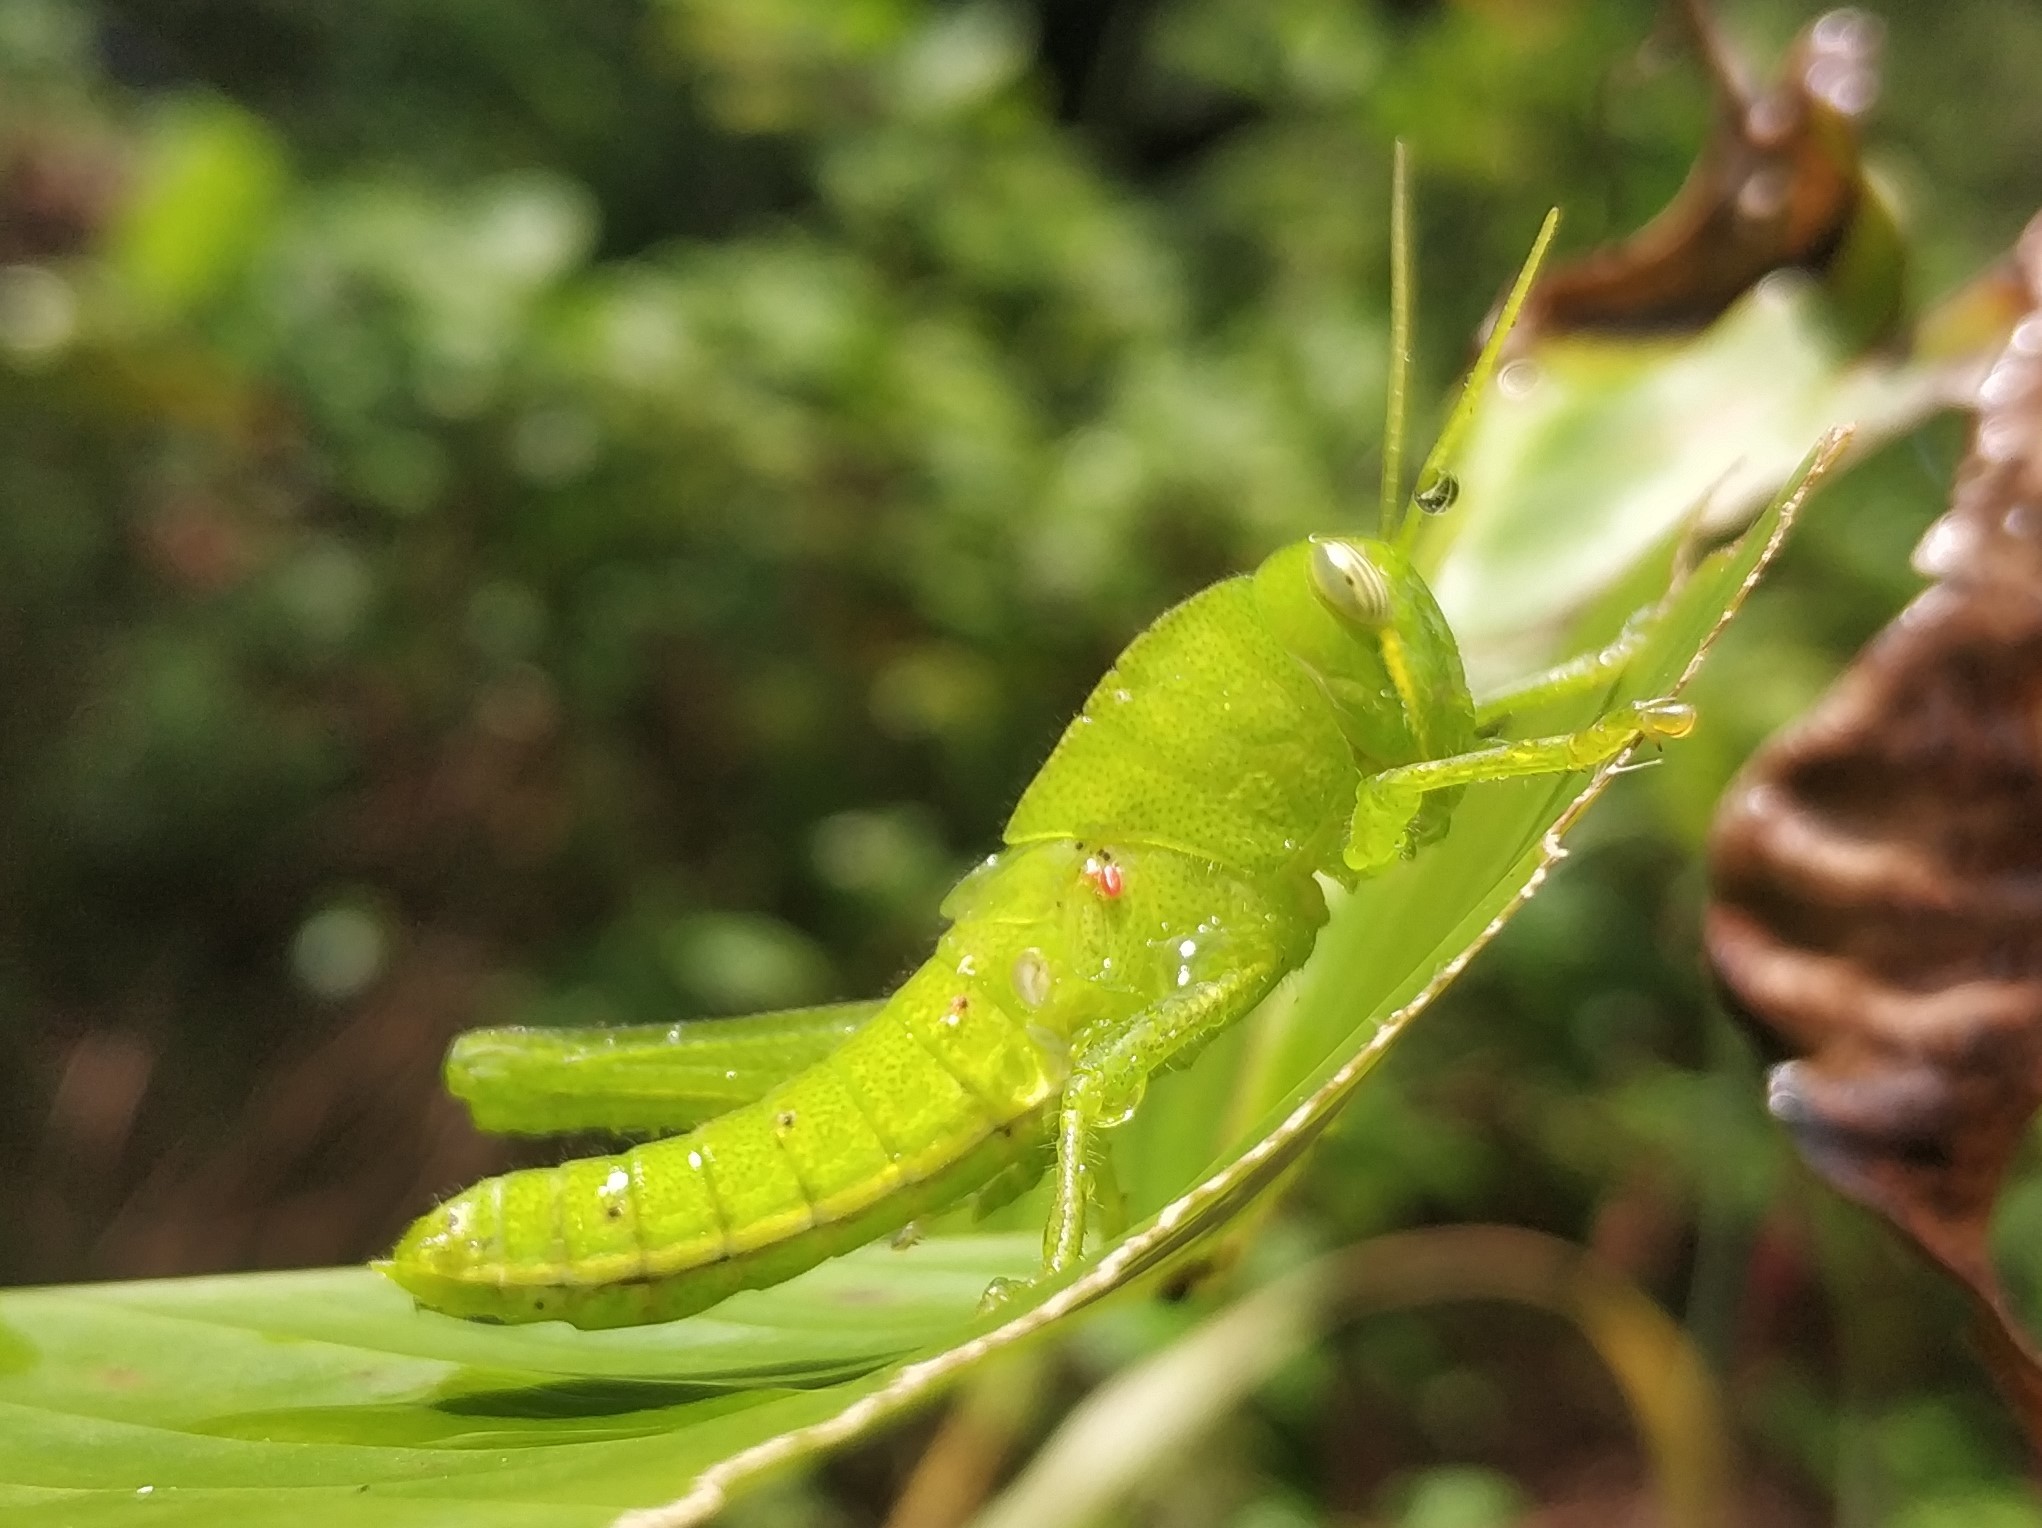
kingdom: Animalia
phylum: Arthropoda
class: Insecta
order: Orthoptera
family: Acrididae
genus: Chondracris
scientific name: Chondracris rosea
